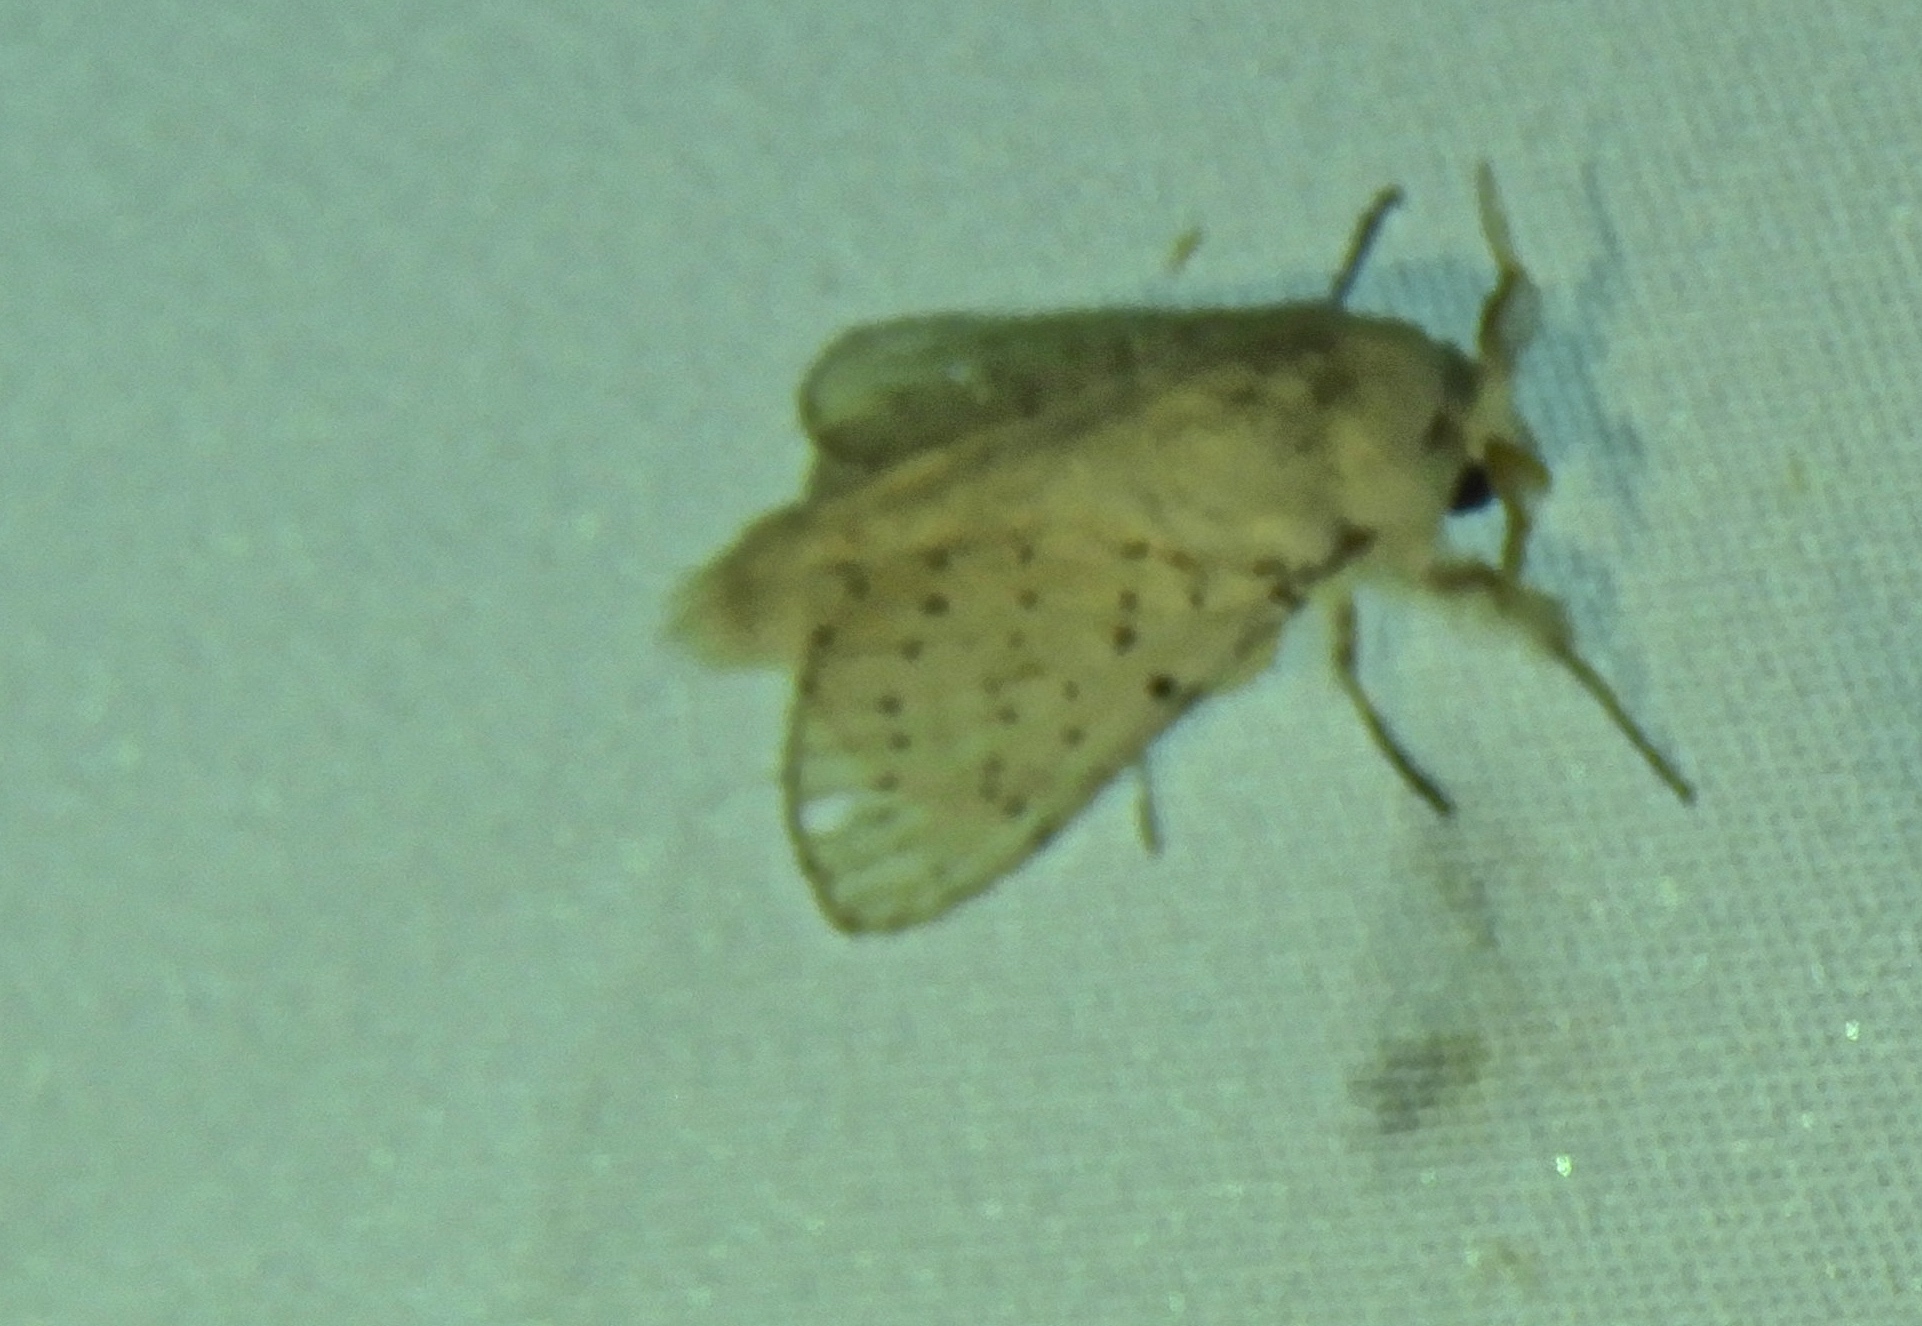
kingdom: Animalia
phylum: Arthropoda
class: Insecta
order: Lepidoptera
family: Lasiocampidae
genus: Artace
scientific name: Artace
